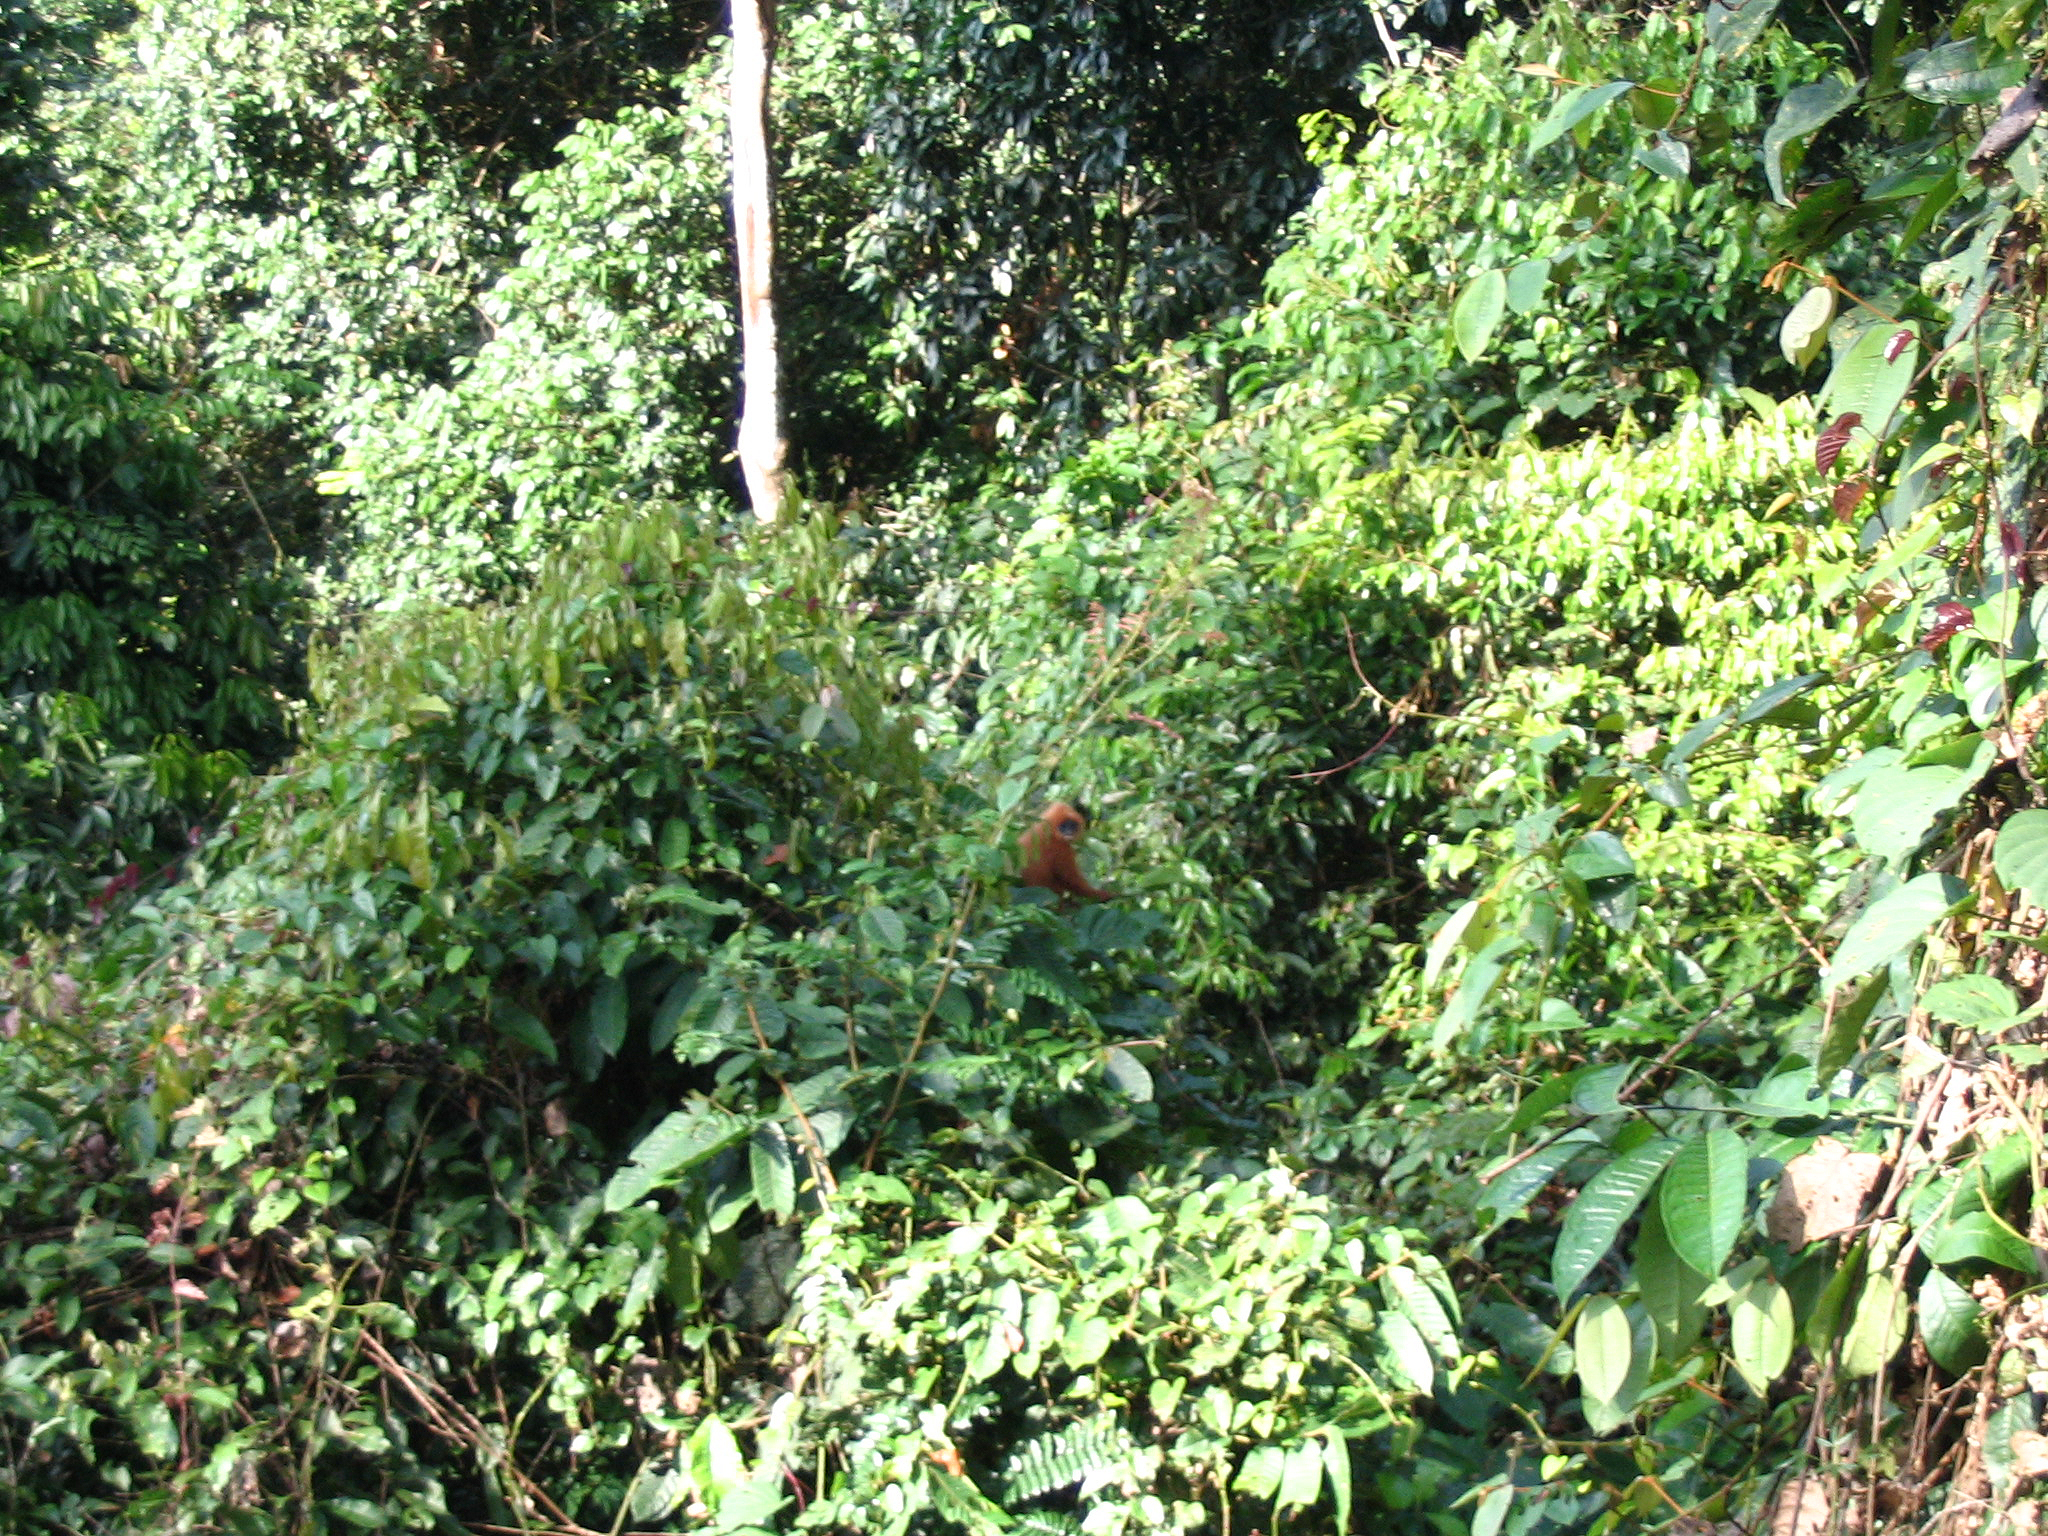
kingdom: Animalia
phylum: Chordata
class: Mammalia
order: Primates
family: Cercopithecidae
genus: Presbytis
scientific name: Presbytis rubicunda
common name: Maroon leaf monkey
